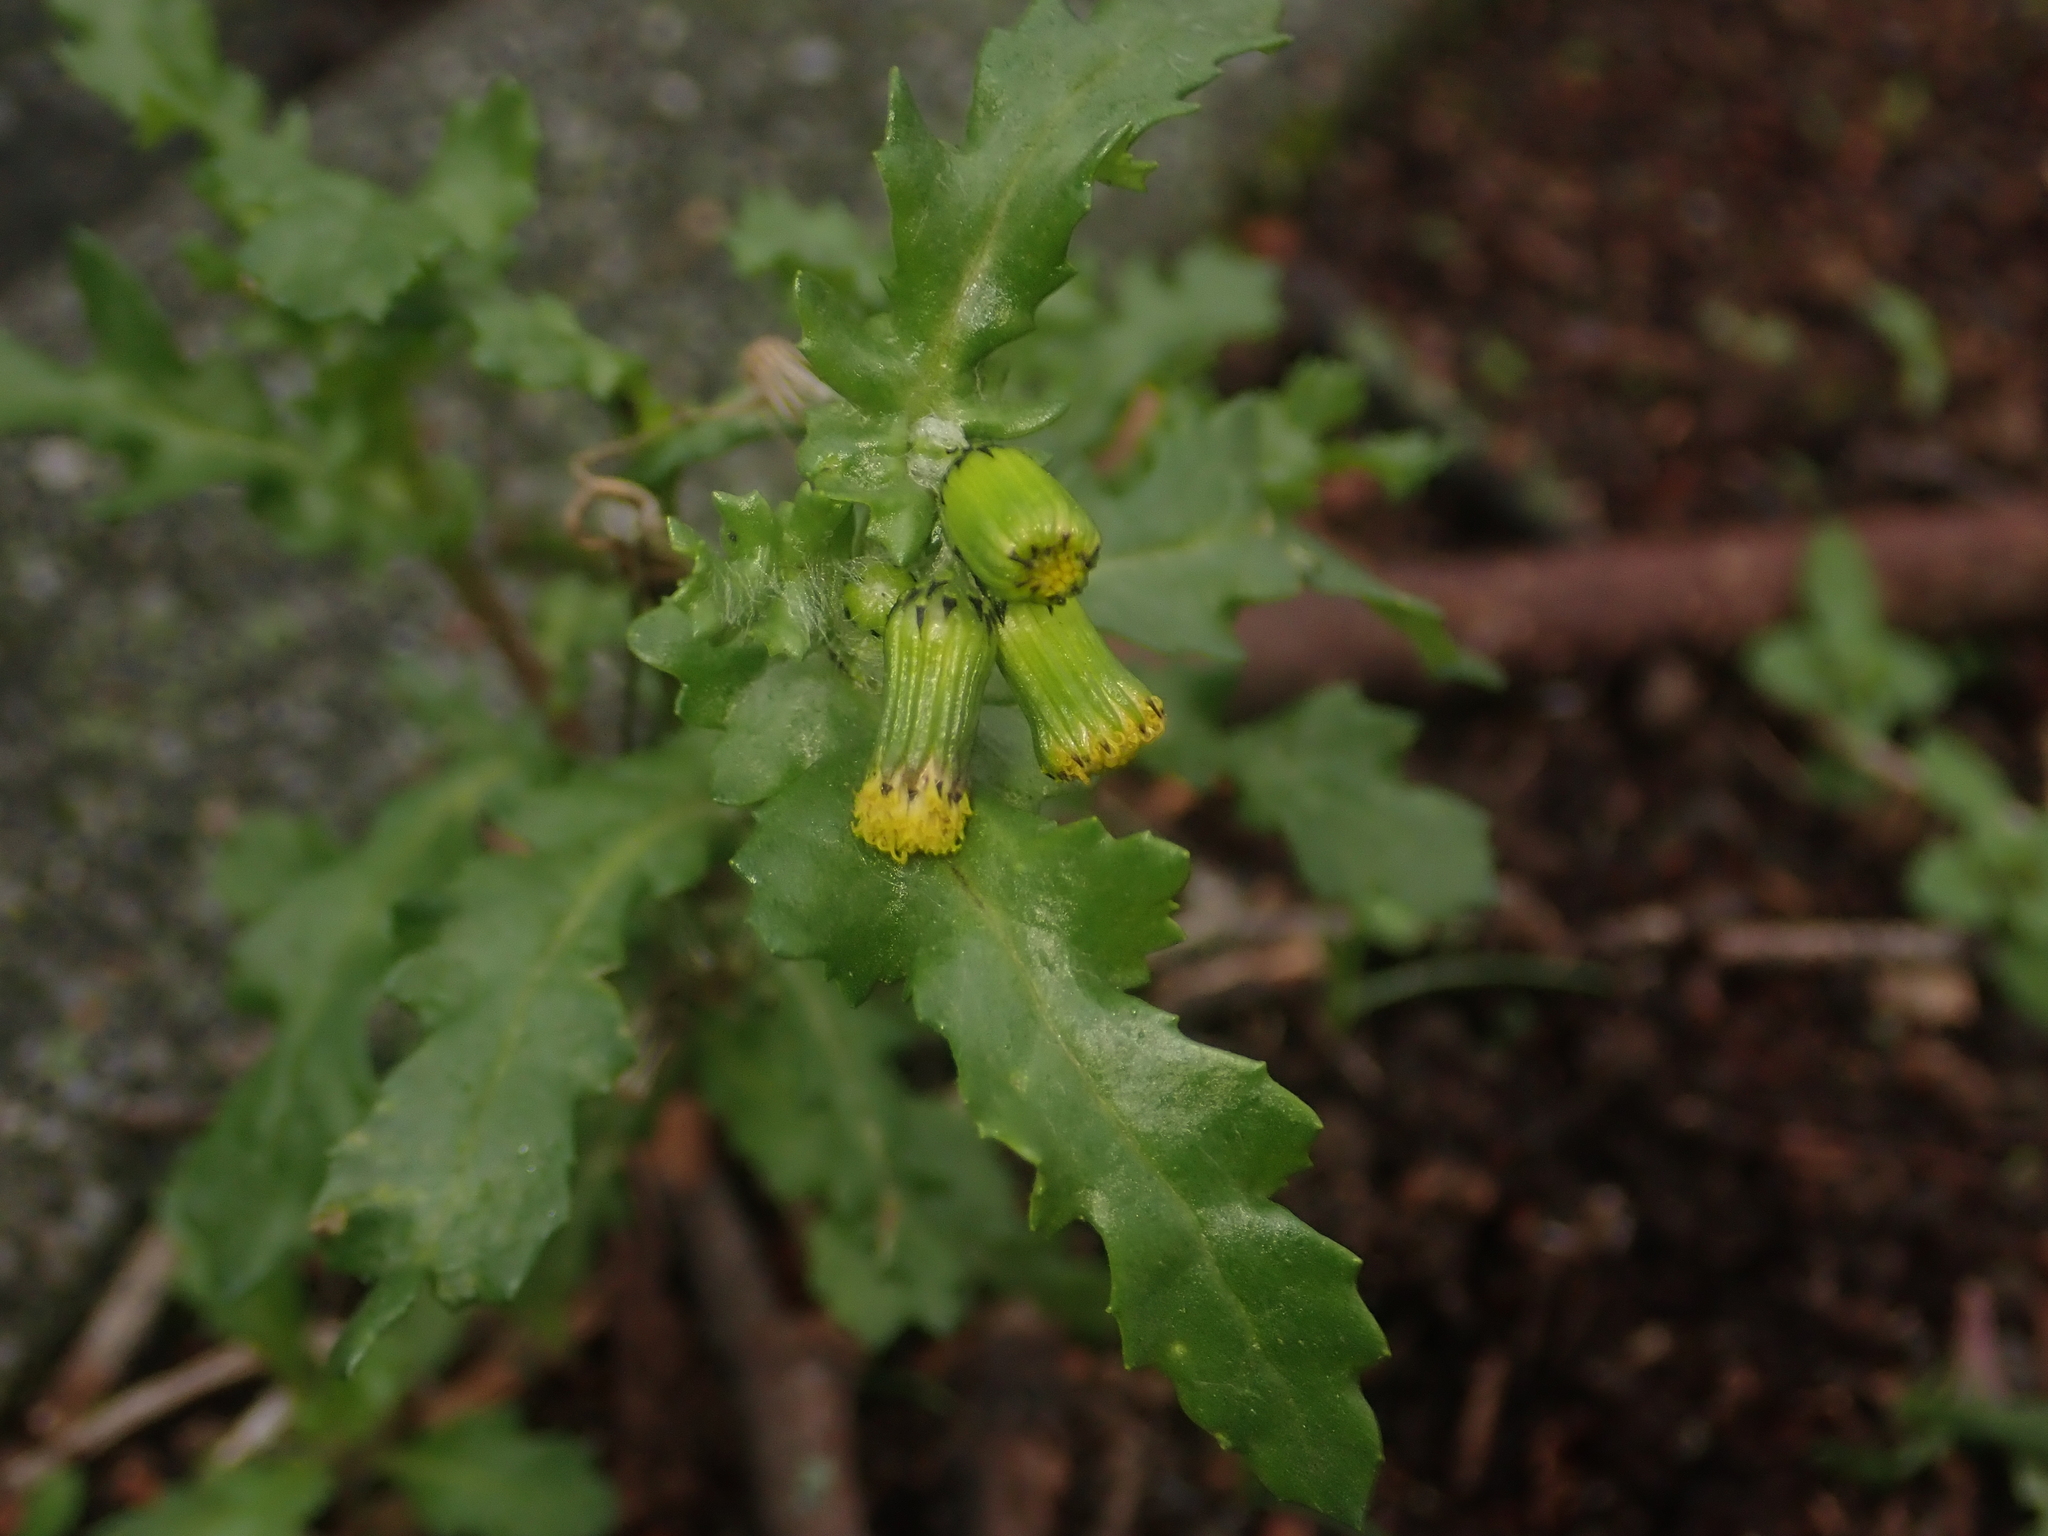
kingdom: Plantae
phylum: Tracheophyta
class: Magnoliopsida
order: Asterales
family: Asteraceae
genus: Senecio
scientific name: Senecio vulgaris
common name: Old-man-in-the-spring
